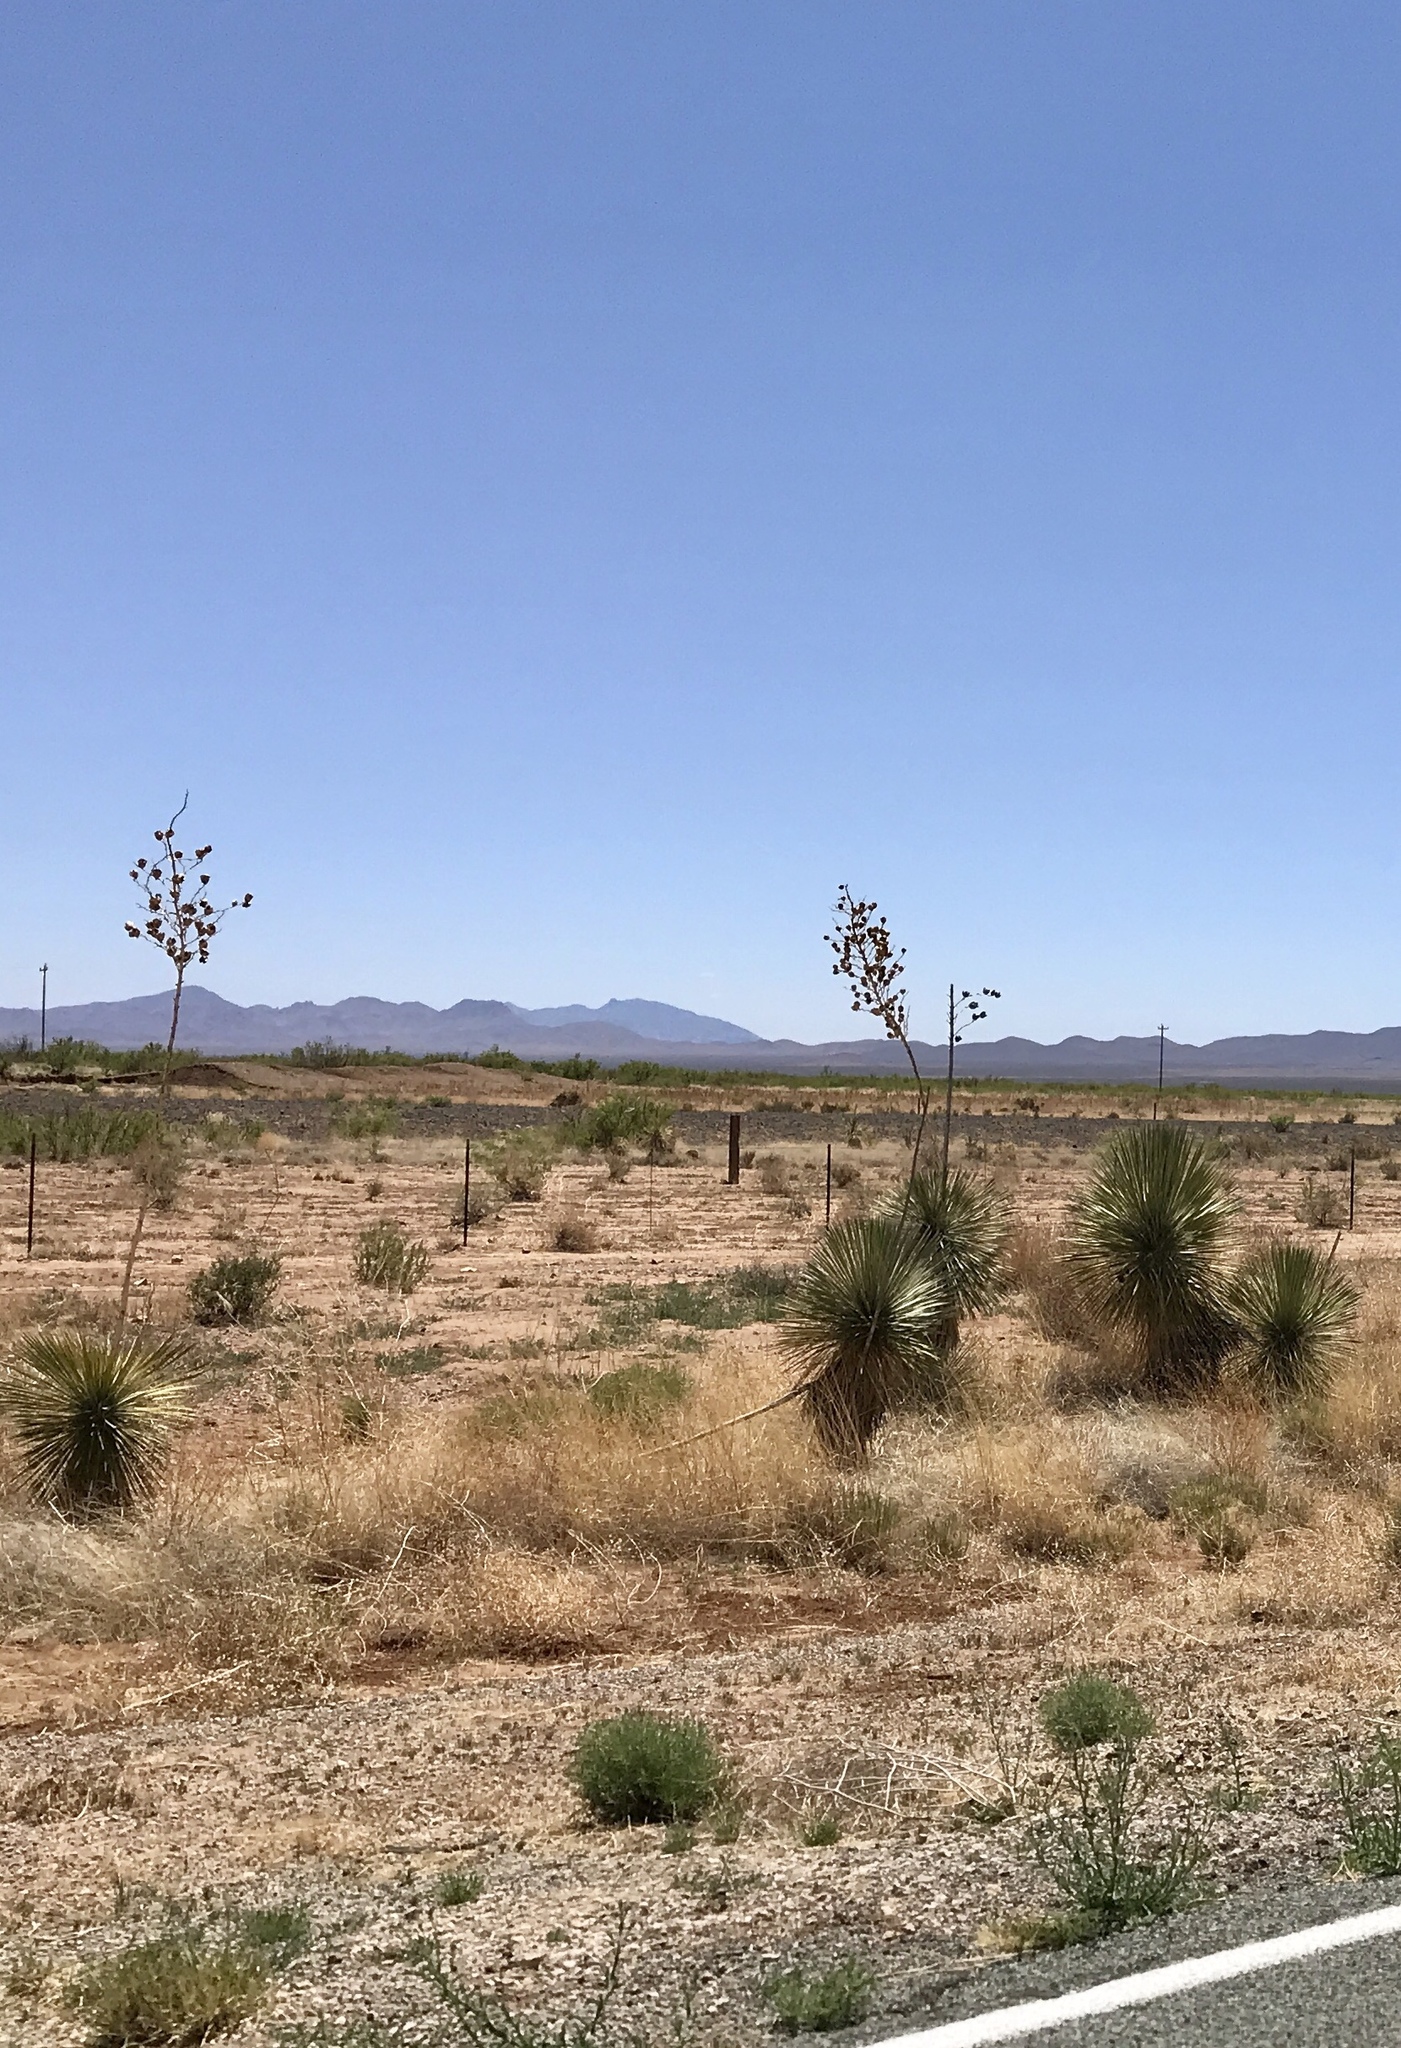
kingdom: Plantae
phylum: Tracheophyta
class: Liliopsida
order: Asparagales
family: Asparagaceae
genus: Yucca
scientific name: Yucca elata
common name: Palmella
